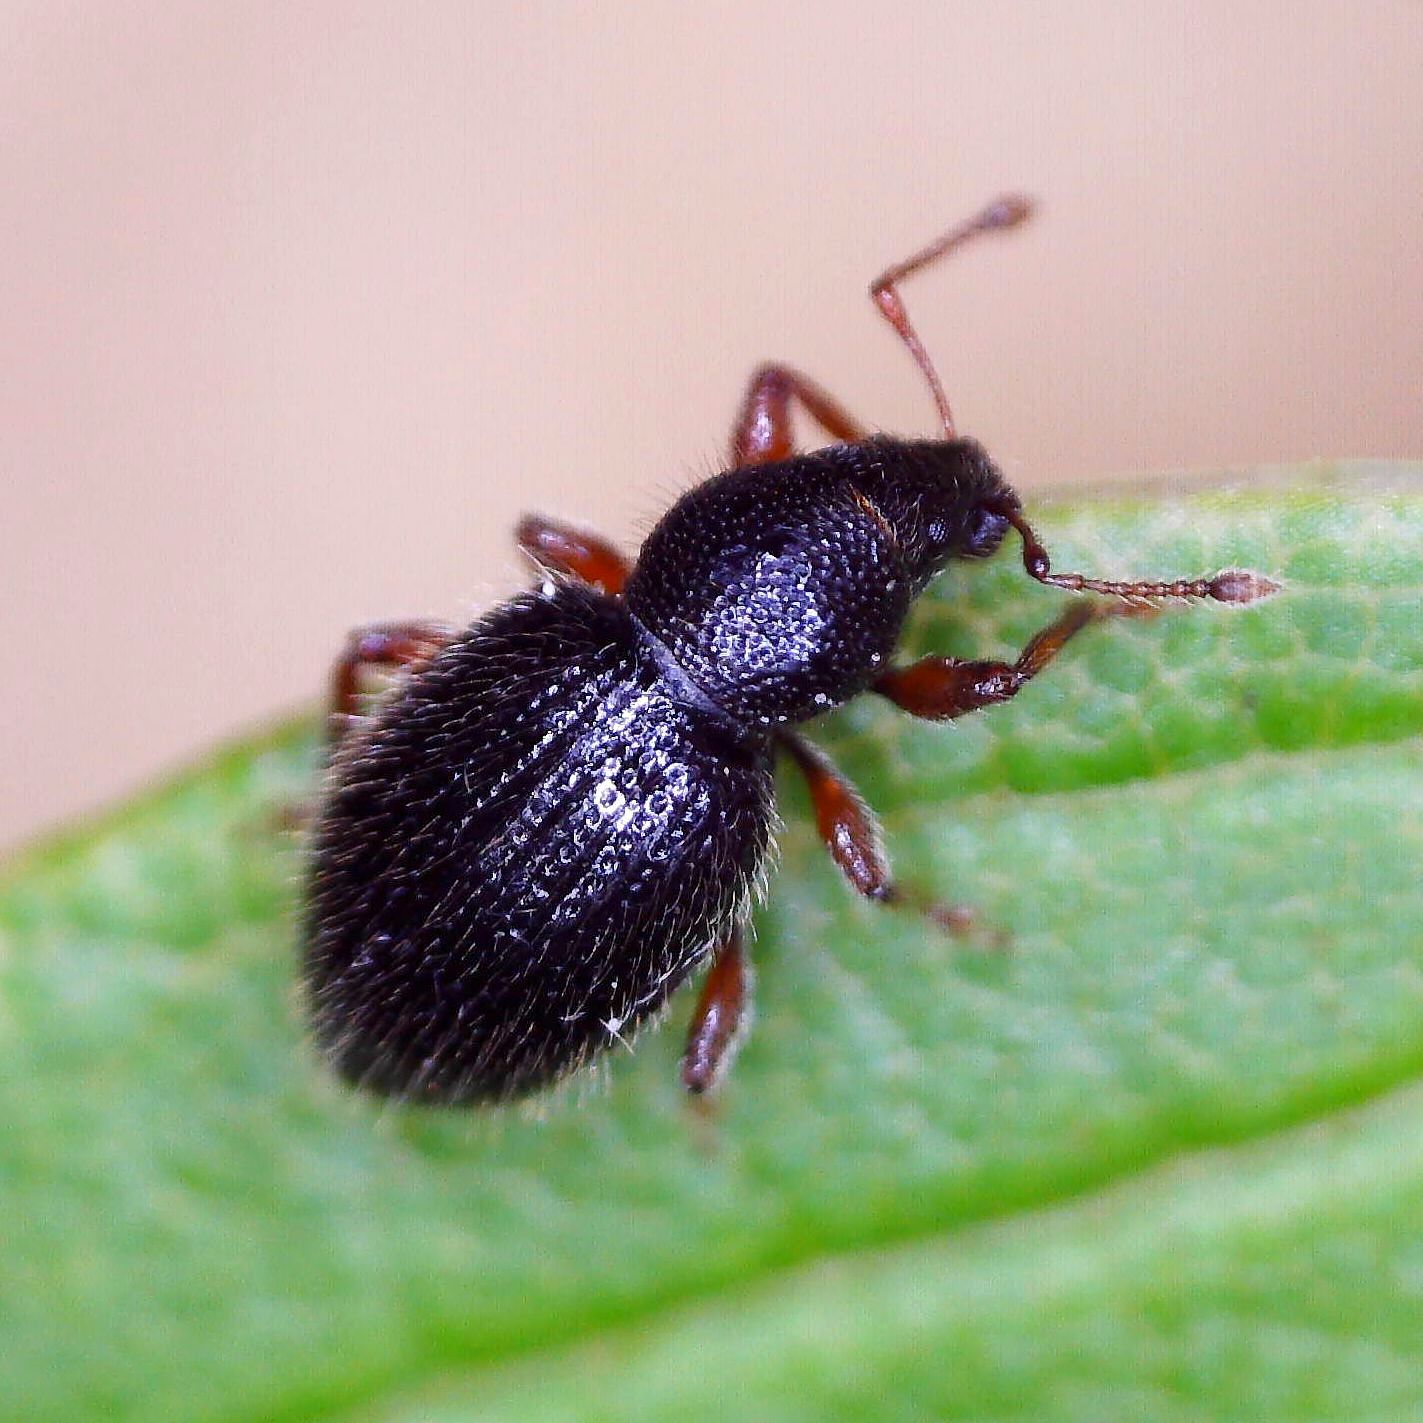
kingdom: Animalia
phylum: Arthropoda
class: Insecta
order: Coleoptera
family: Curculionidae
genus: Exomias
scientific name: Exomias pellucidus
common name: Hairy spider weevil
